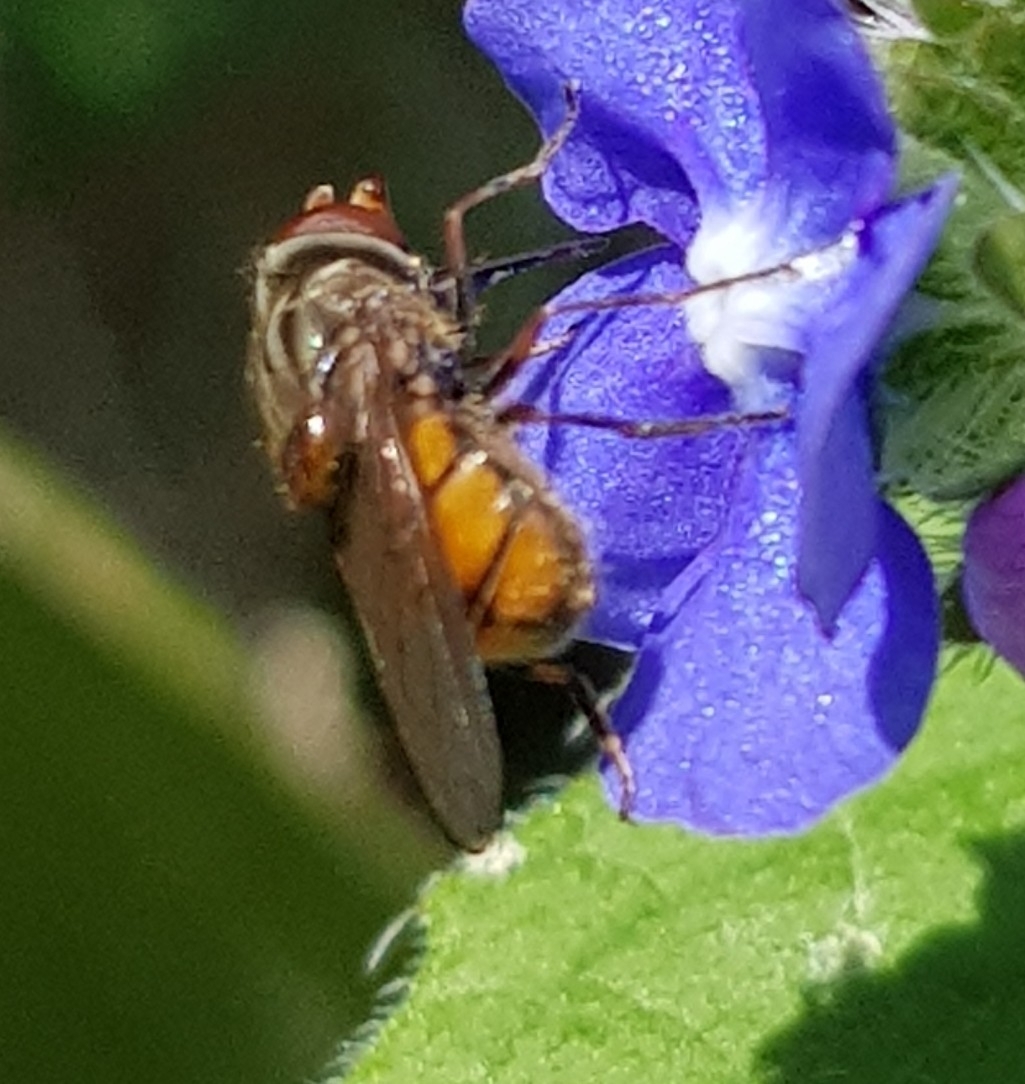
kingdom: Animalia
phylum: Arthropoda
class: Insecta
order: Diptera
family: Syrphidae
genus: Rhingia
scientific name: Rhingia campestris
